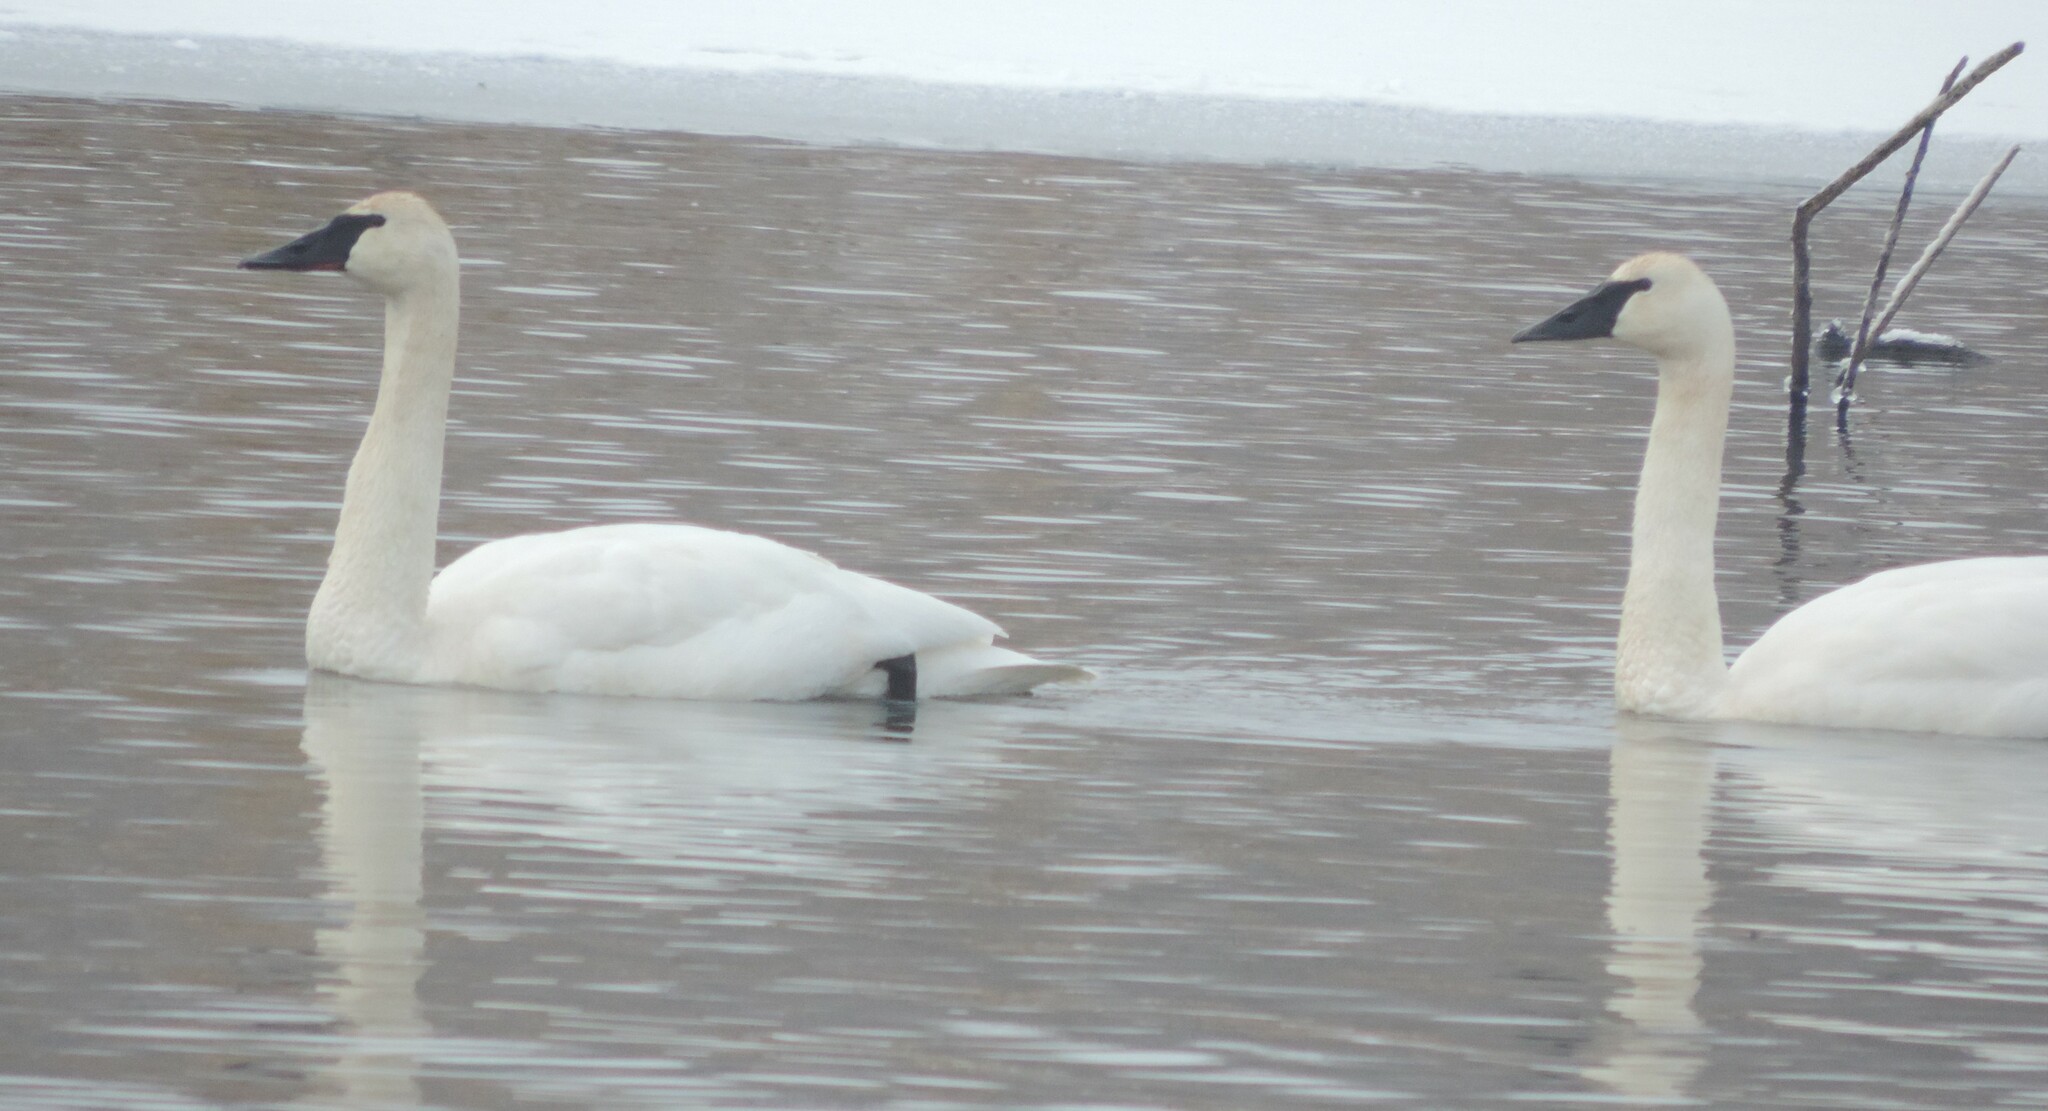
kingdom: Animalia
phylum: Chordata
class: Aves
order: Anseriformes
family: Anatidae
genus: Cygnus
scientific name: Cygnus buccinator
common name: Trumpeter swan
